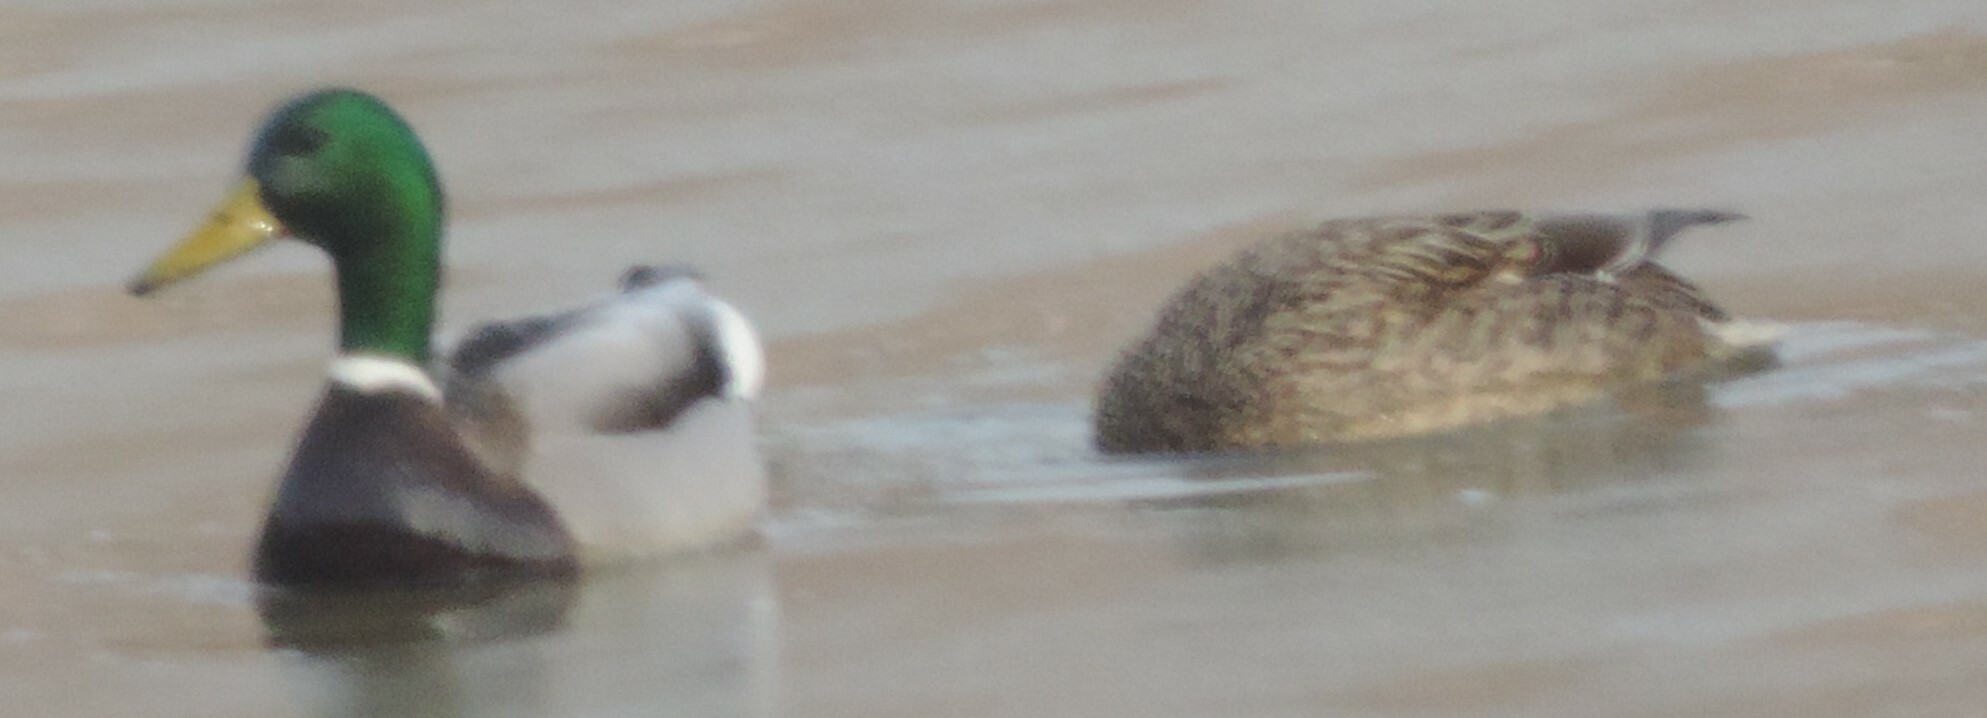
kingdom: Animalia
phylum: Chordata
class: Aves
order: Anseriformes
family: Anatidae
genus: Anas
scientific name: Anas platyrhynchos
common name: Mallard
